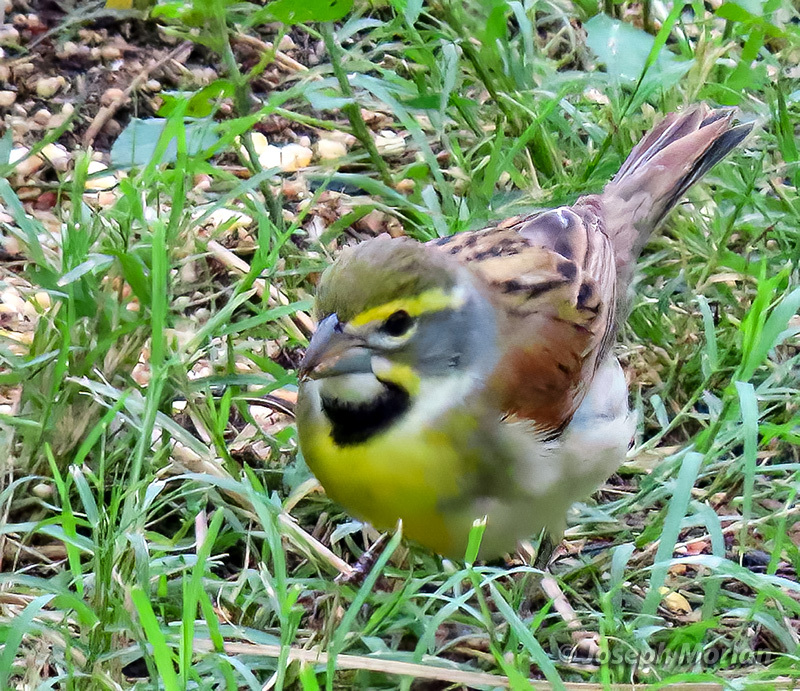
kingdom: Animalia
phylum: Chordata
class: Aves
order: Passeriformes
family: Cardinalidae
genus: Spiza
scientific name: Spiza americana
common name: Dickcissel
